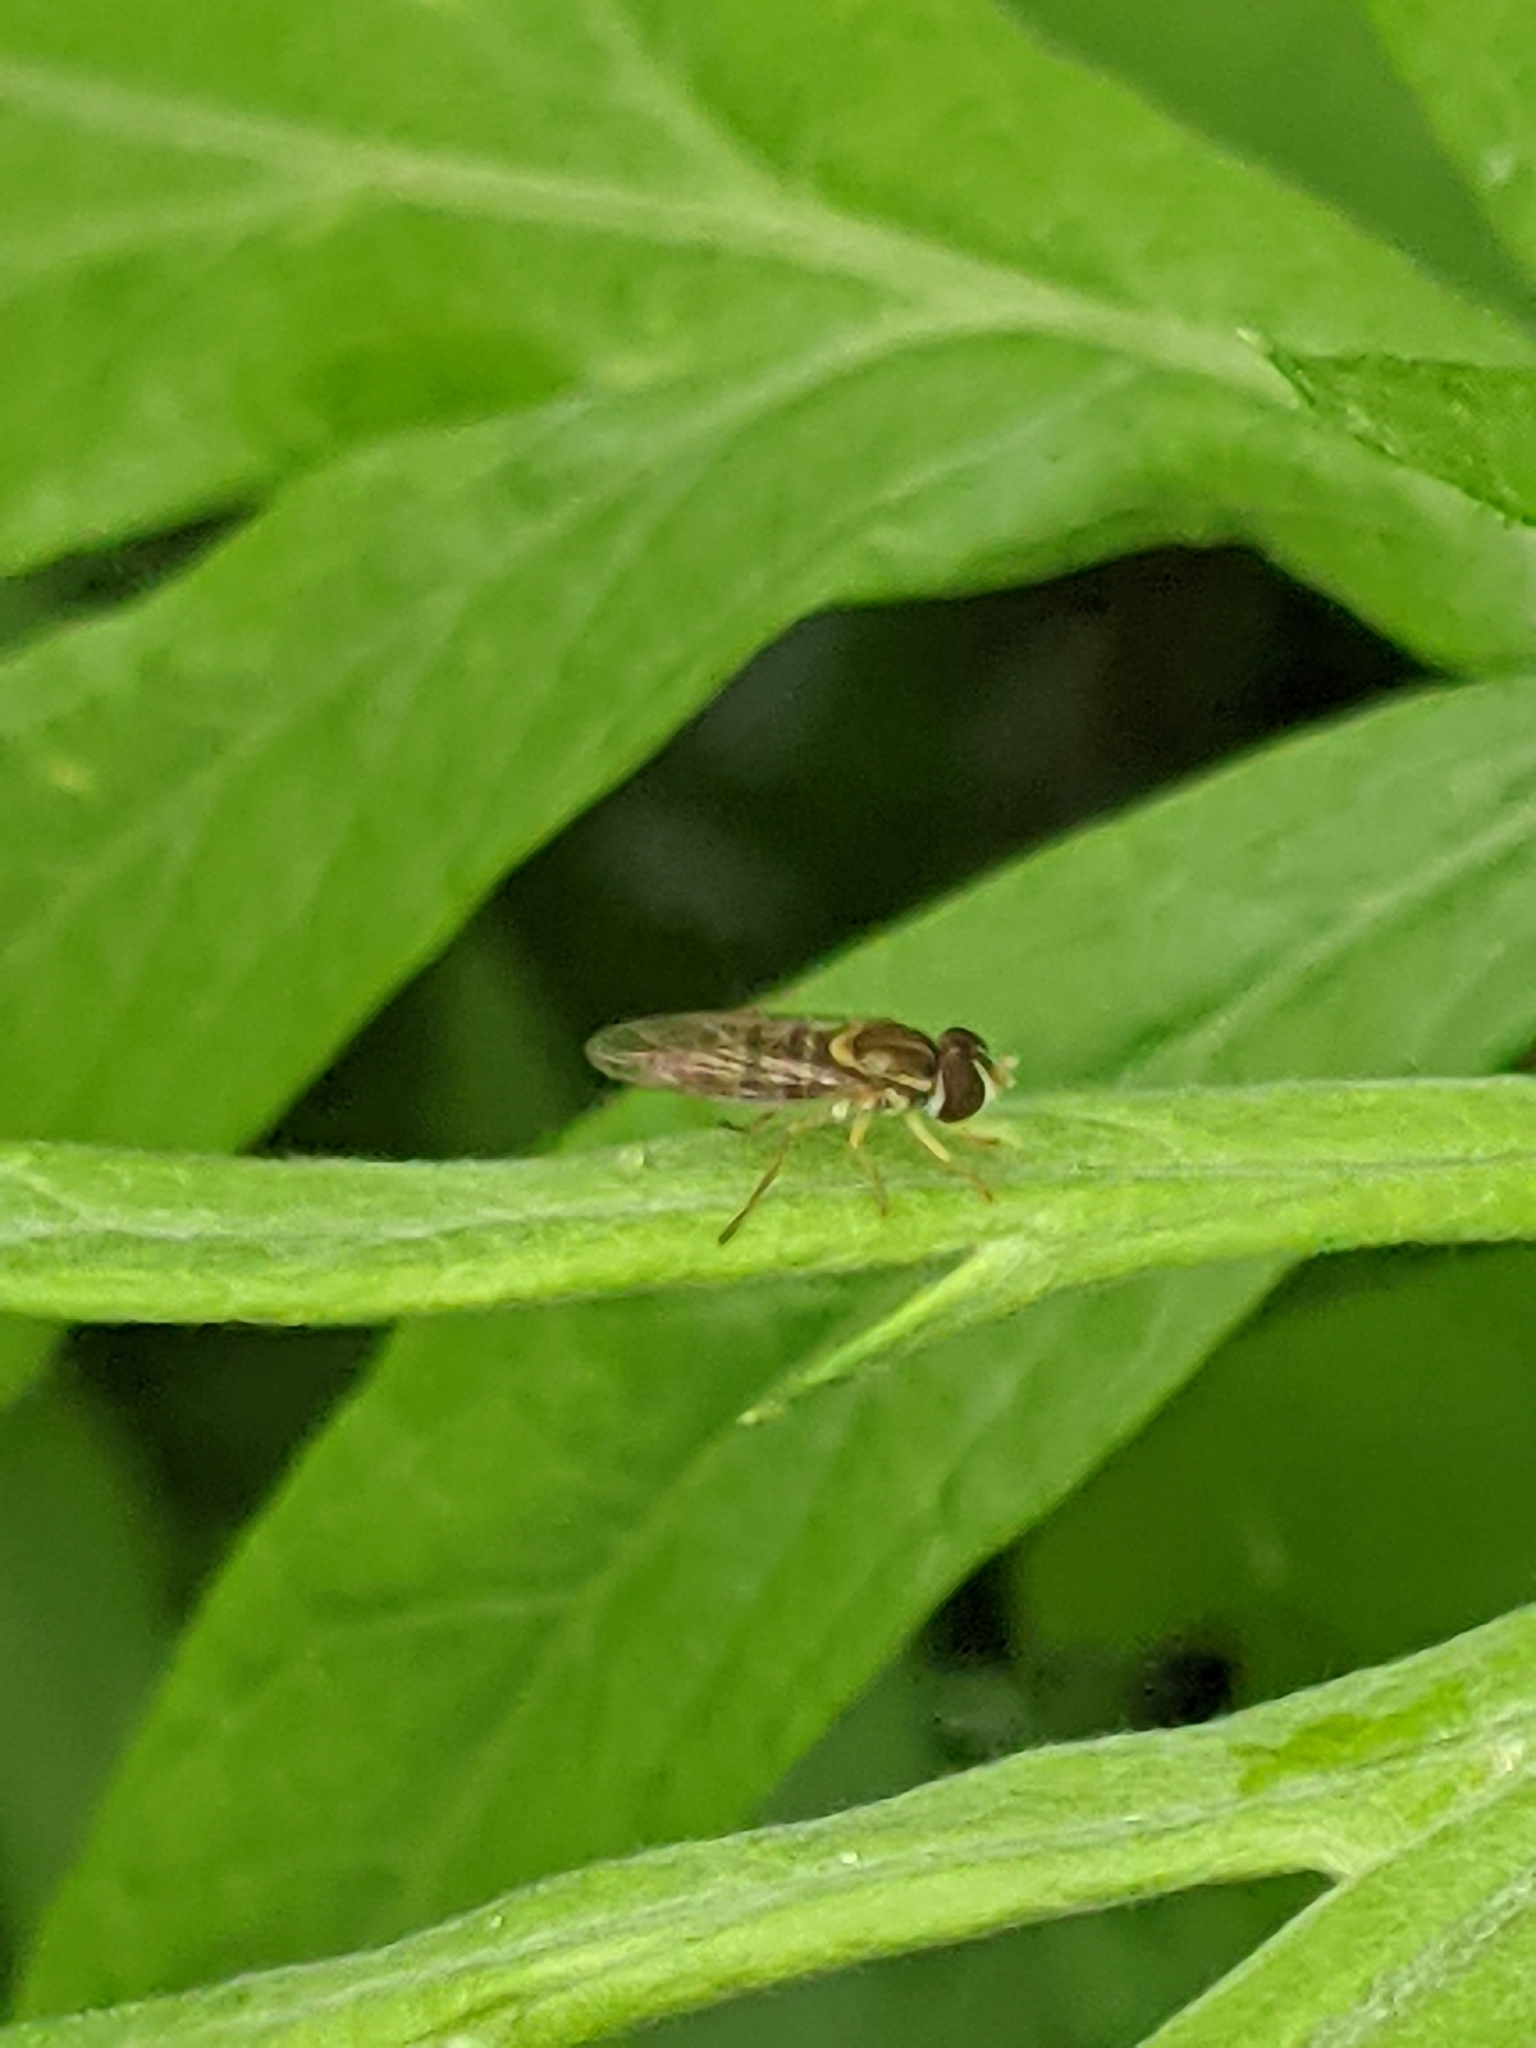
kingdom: Animalia
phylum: Arthropoda
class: Insecta
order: Diptera
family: Syrphidae
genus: Toxomerus
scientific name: Toxomerus marginatus
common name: Syrphid fly
